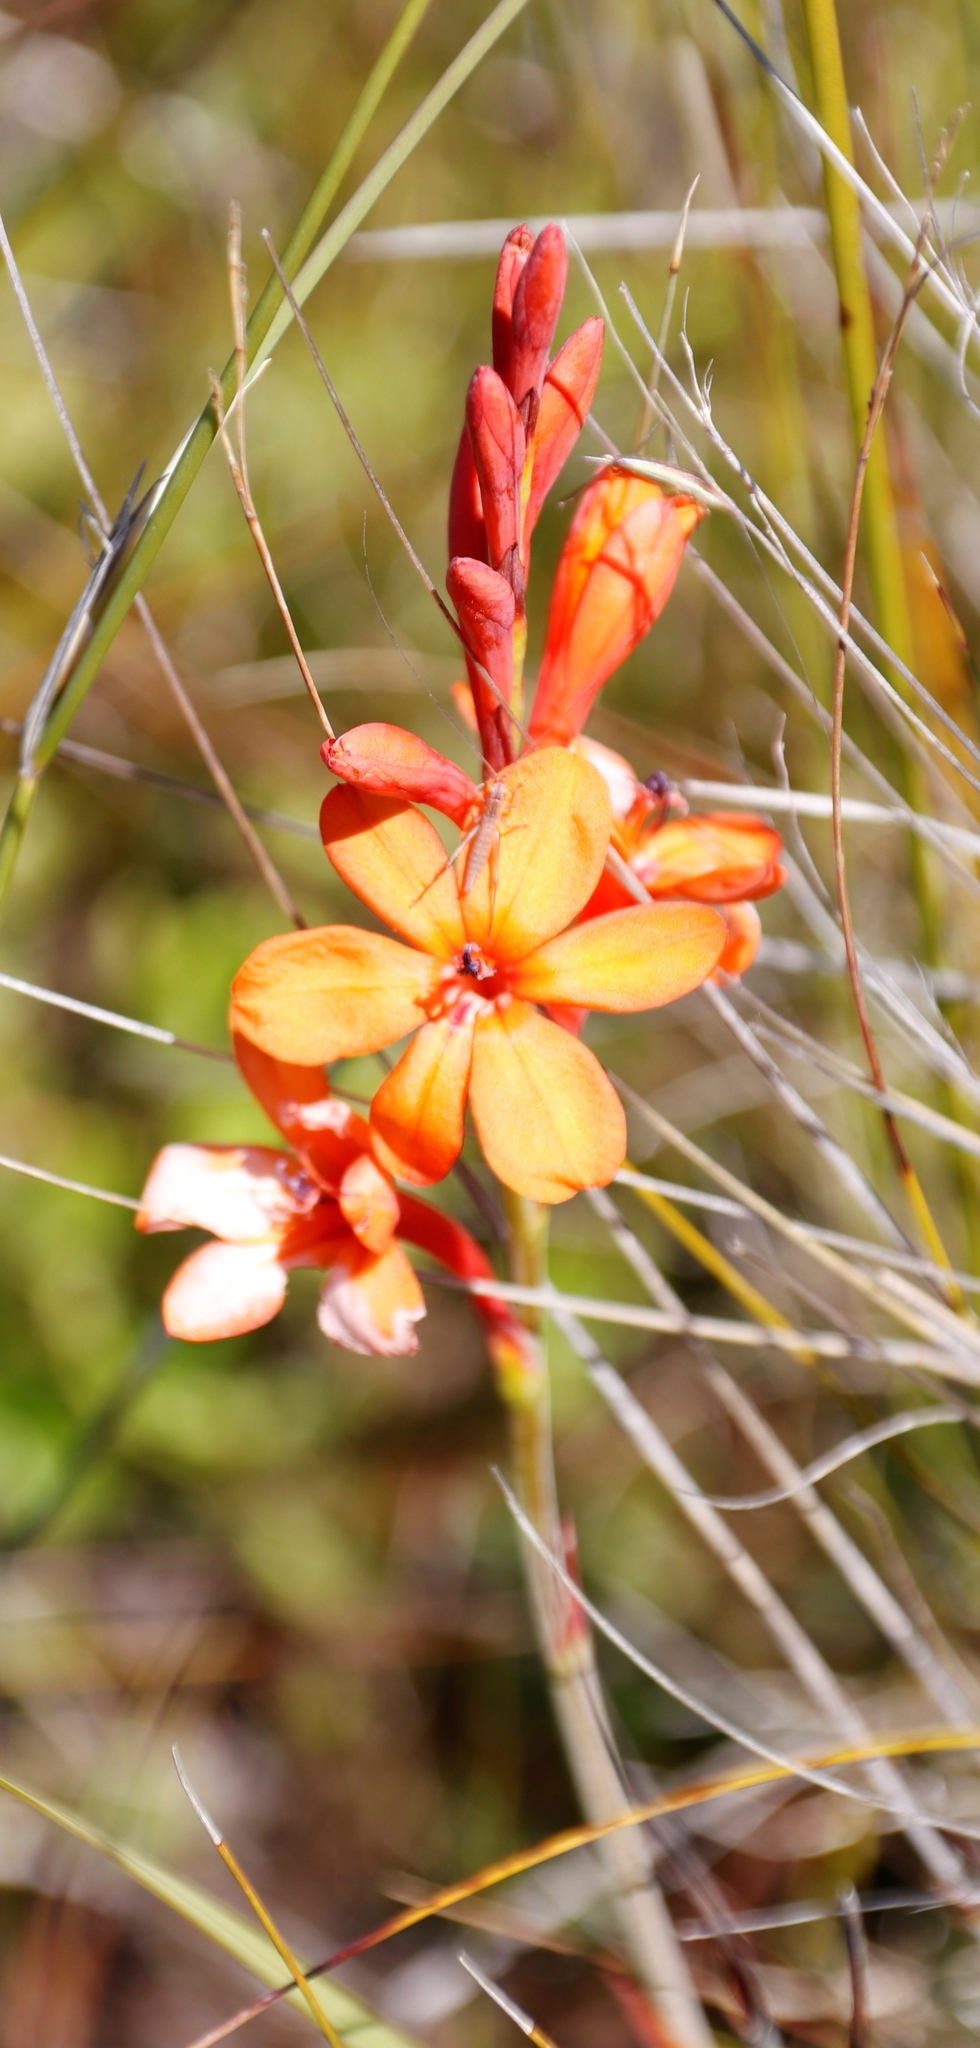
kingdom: Plantae
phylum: Tracheophyta
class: Liliopsida
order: Asparagales
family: Iridaceae
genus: Watsonia
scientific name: Watsonia minima
